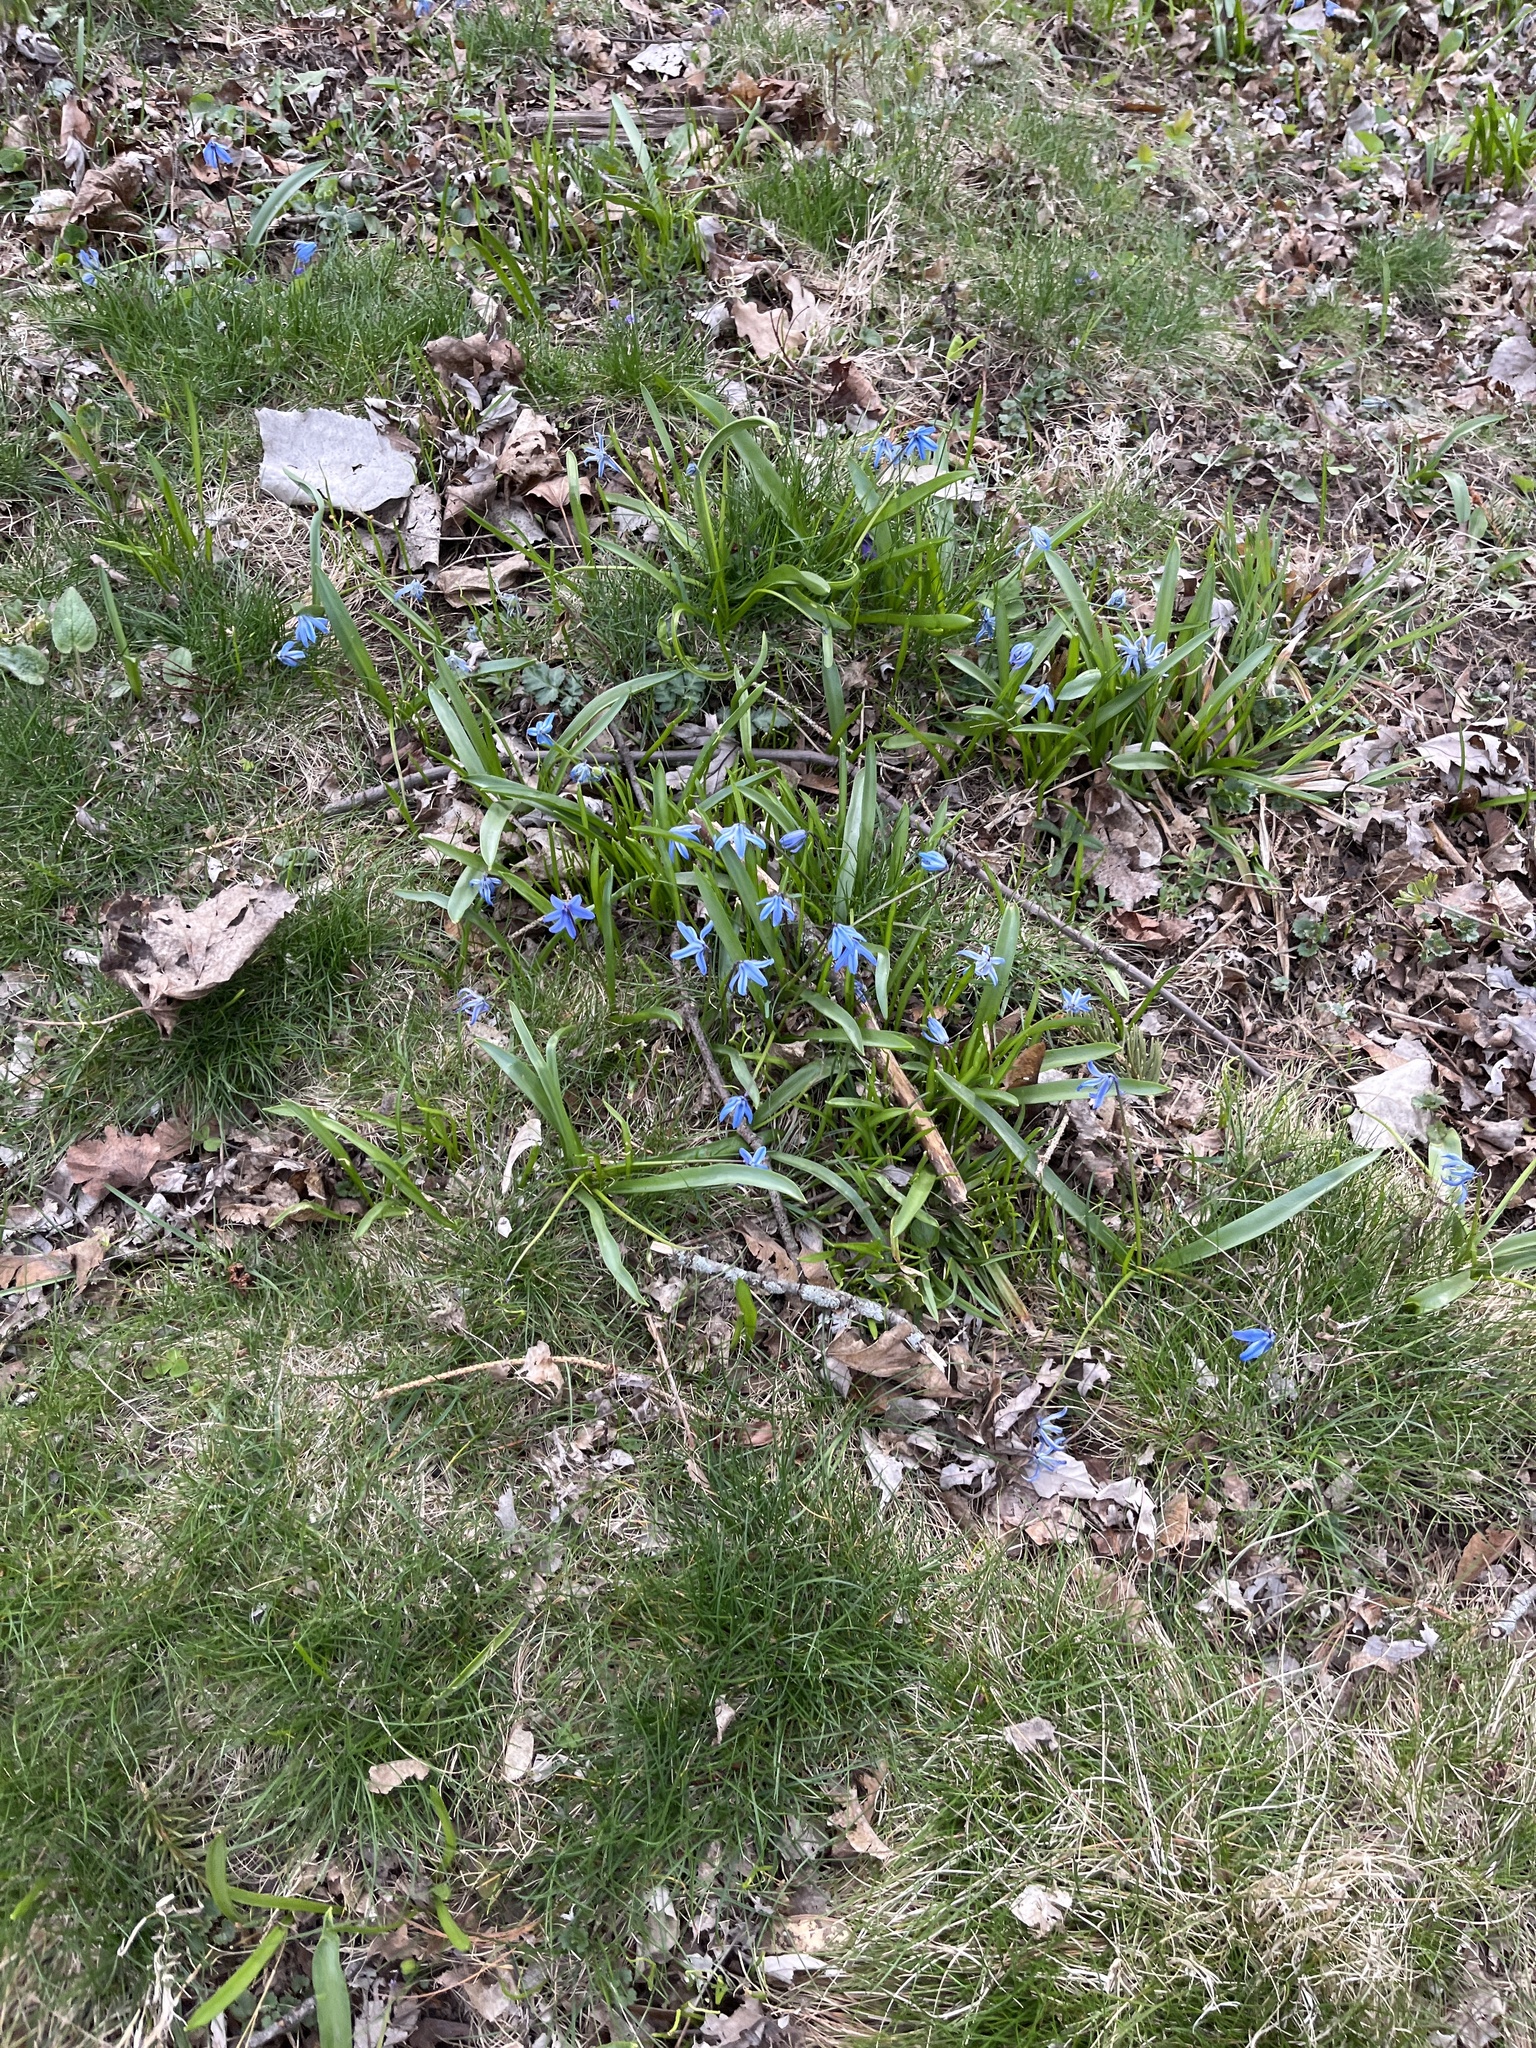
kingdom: Plantae
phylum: Tracheophyta
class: Liliopsida
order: Asparagales
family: Asparagaceae
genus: Scilla
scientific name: Scilla siberica
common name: Siberian squill
